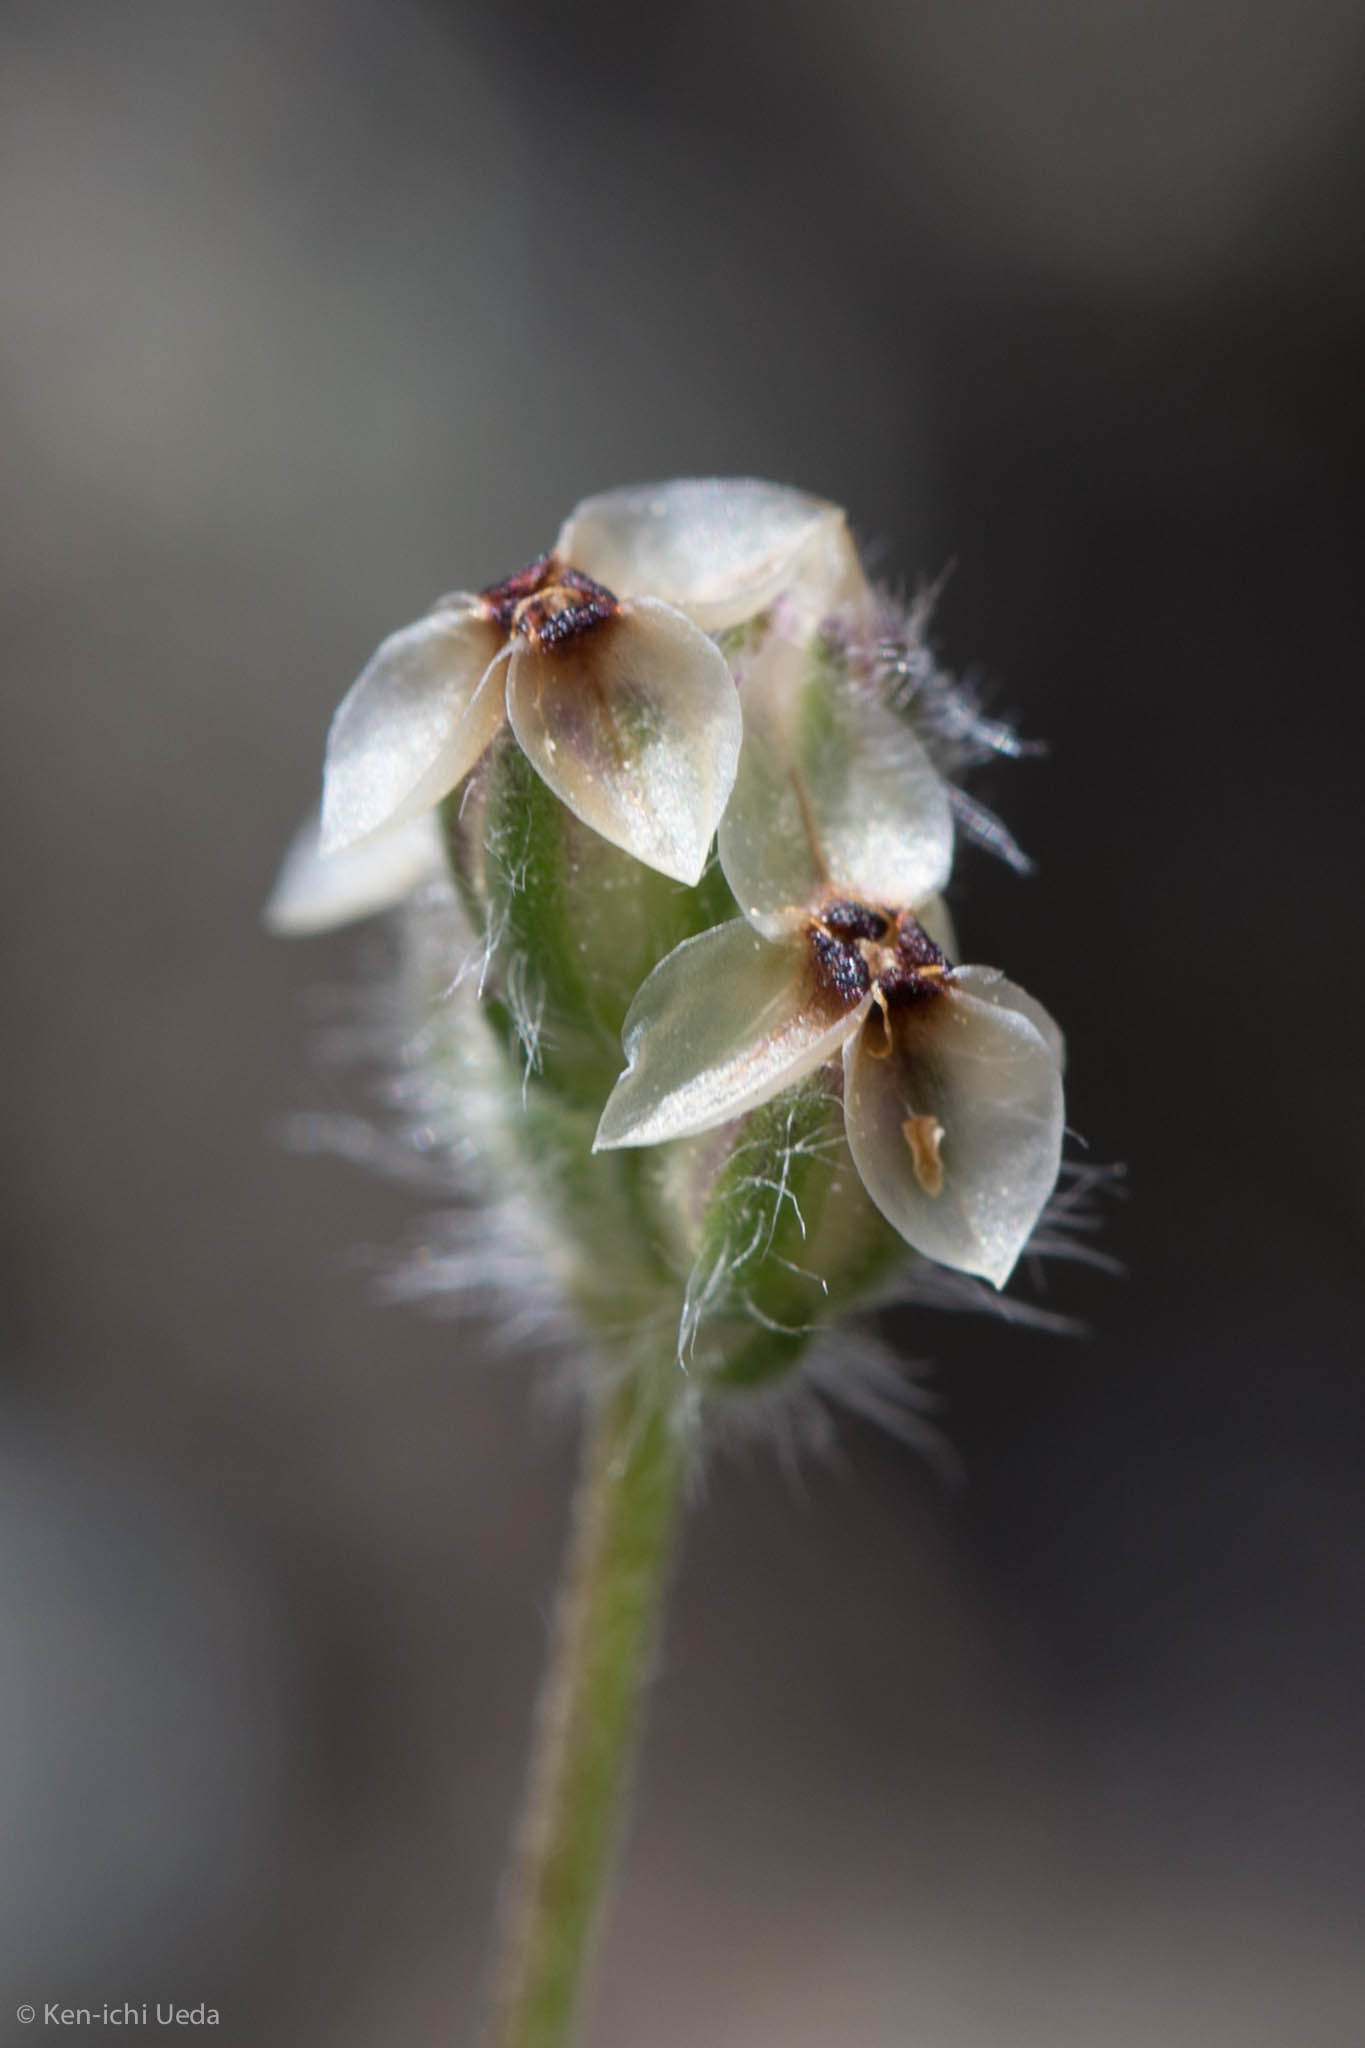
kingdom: Plantae
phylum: Tracheophyta
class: Magnoliopsida
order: Lamiales
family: Plantaginaceae
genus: Plantago
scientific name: Plantago erecta
